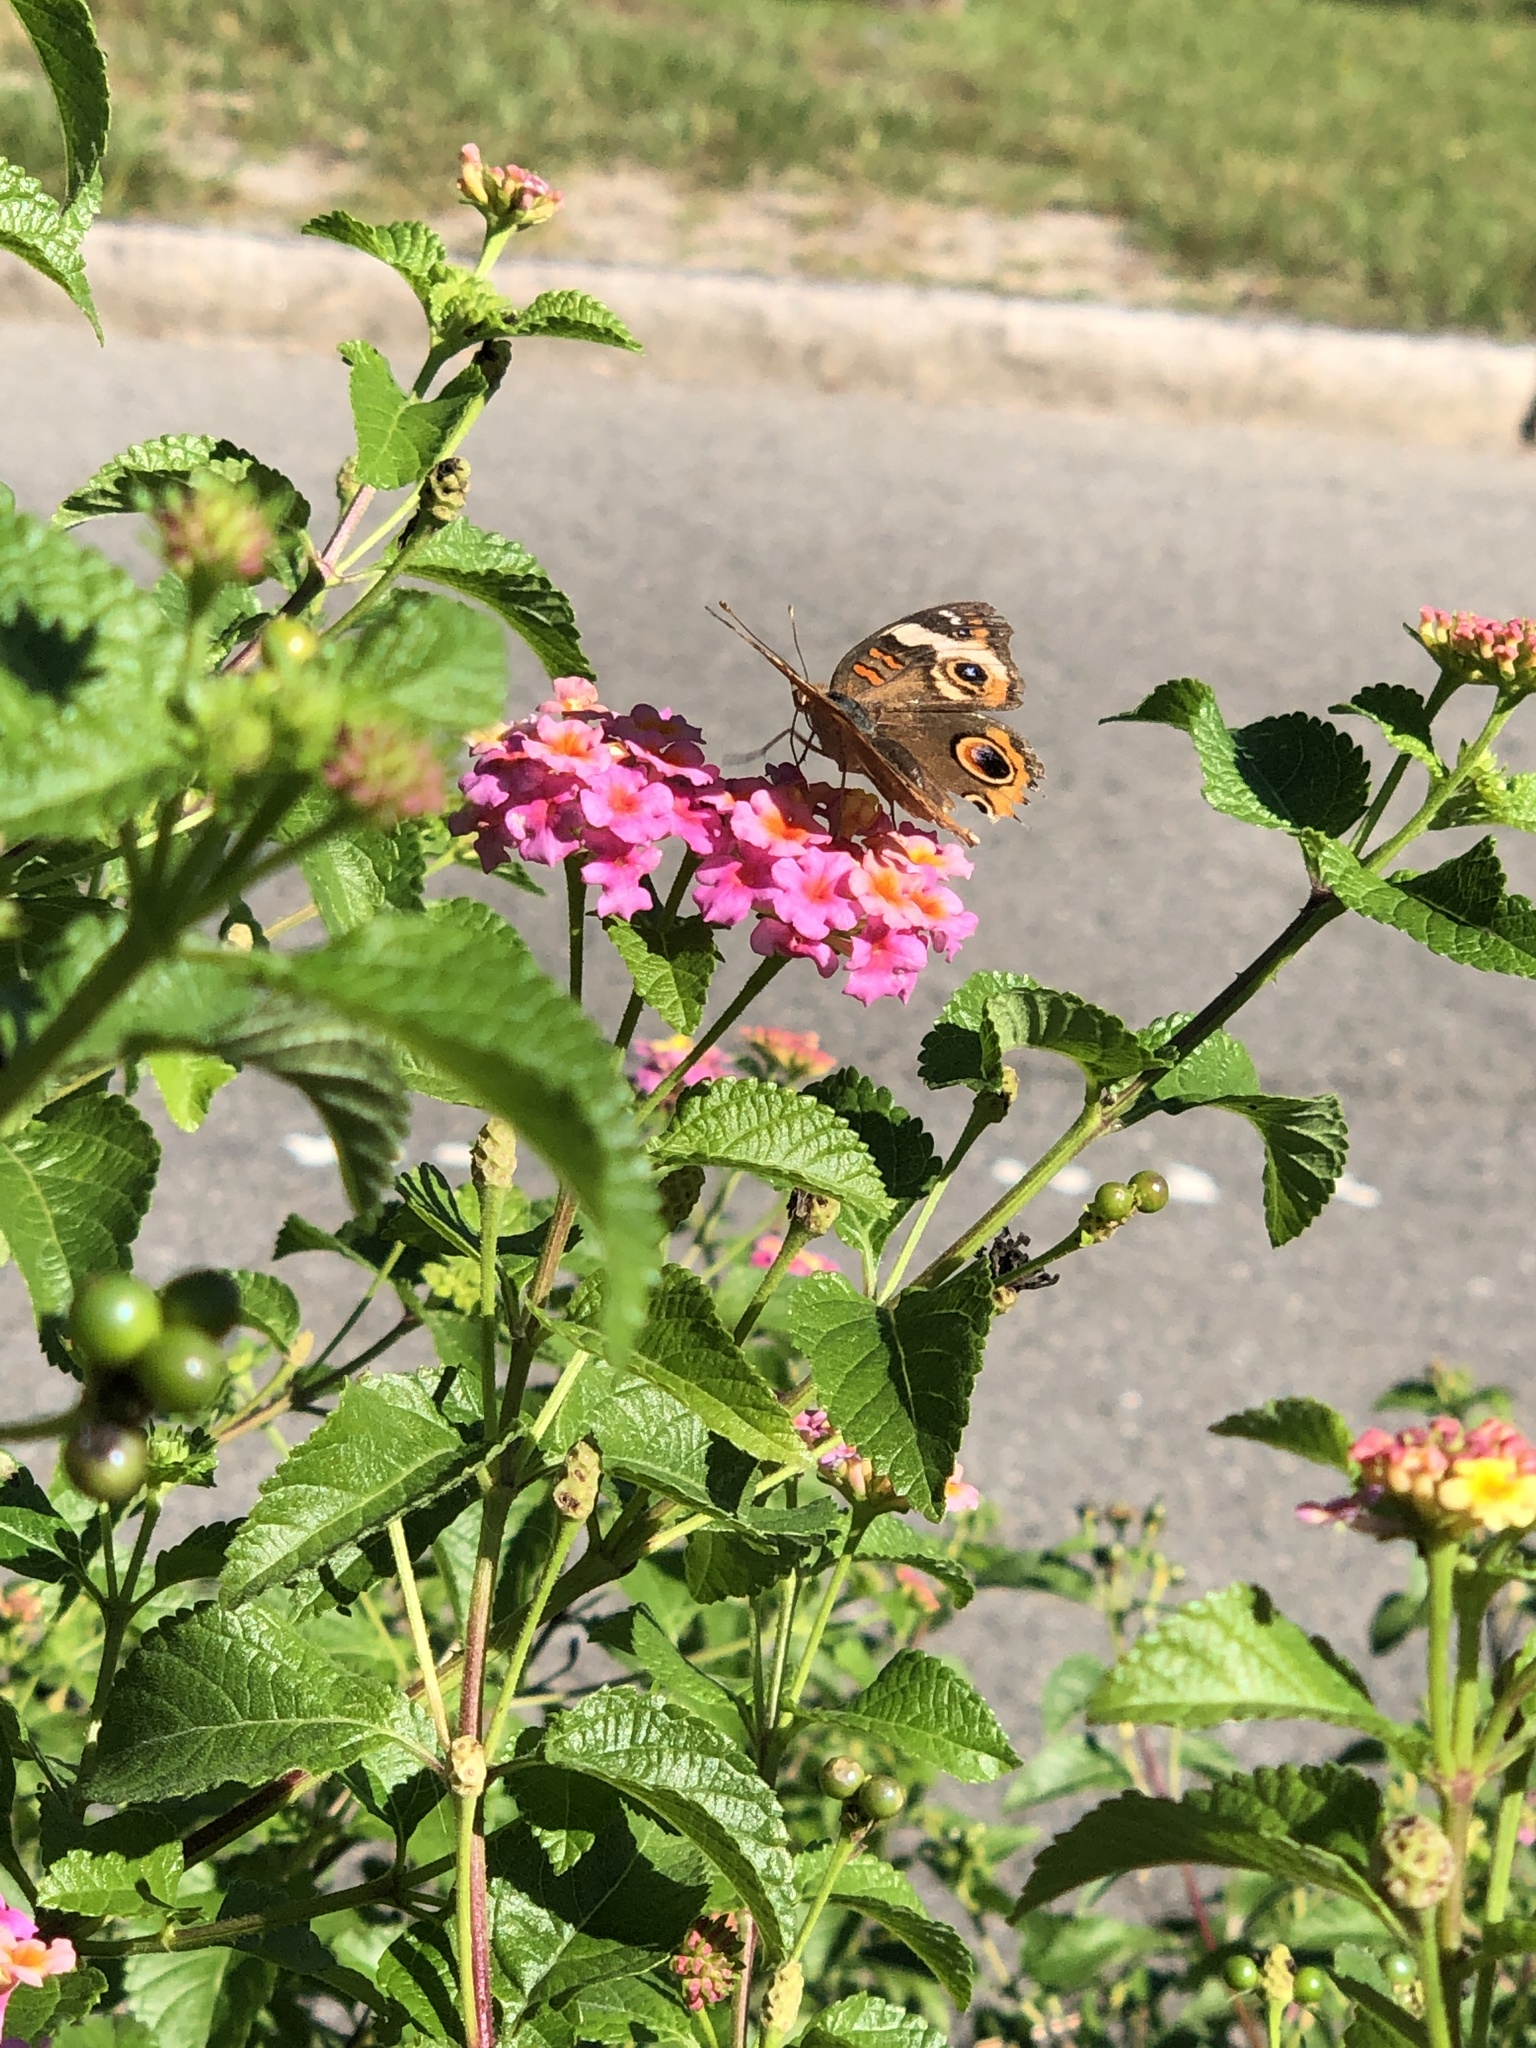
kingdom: Animalia
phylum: Arthropoda
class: Insecta
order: Lepidoptera
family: Nymphalidae
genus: Junonia
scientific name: Junonia coenia
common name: Common buckeye
